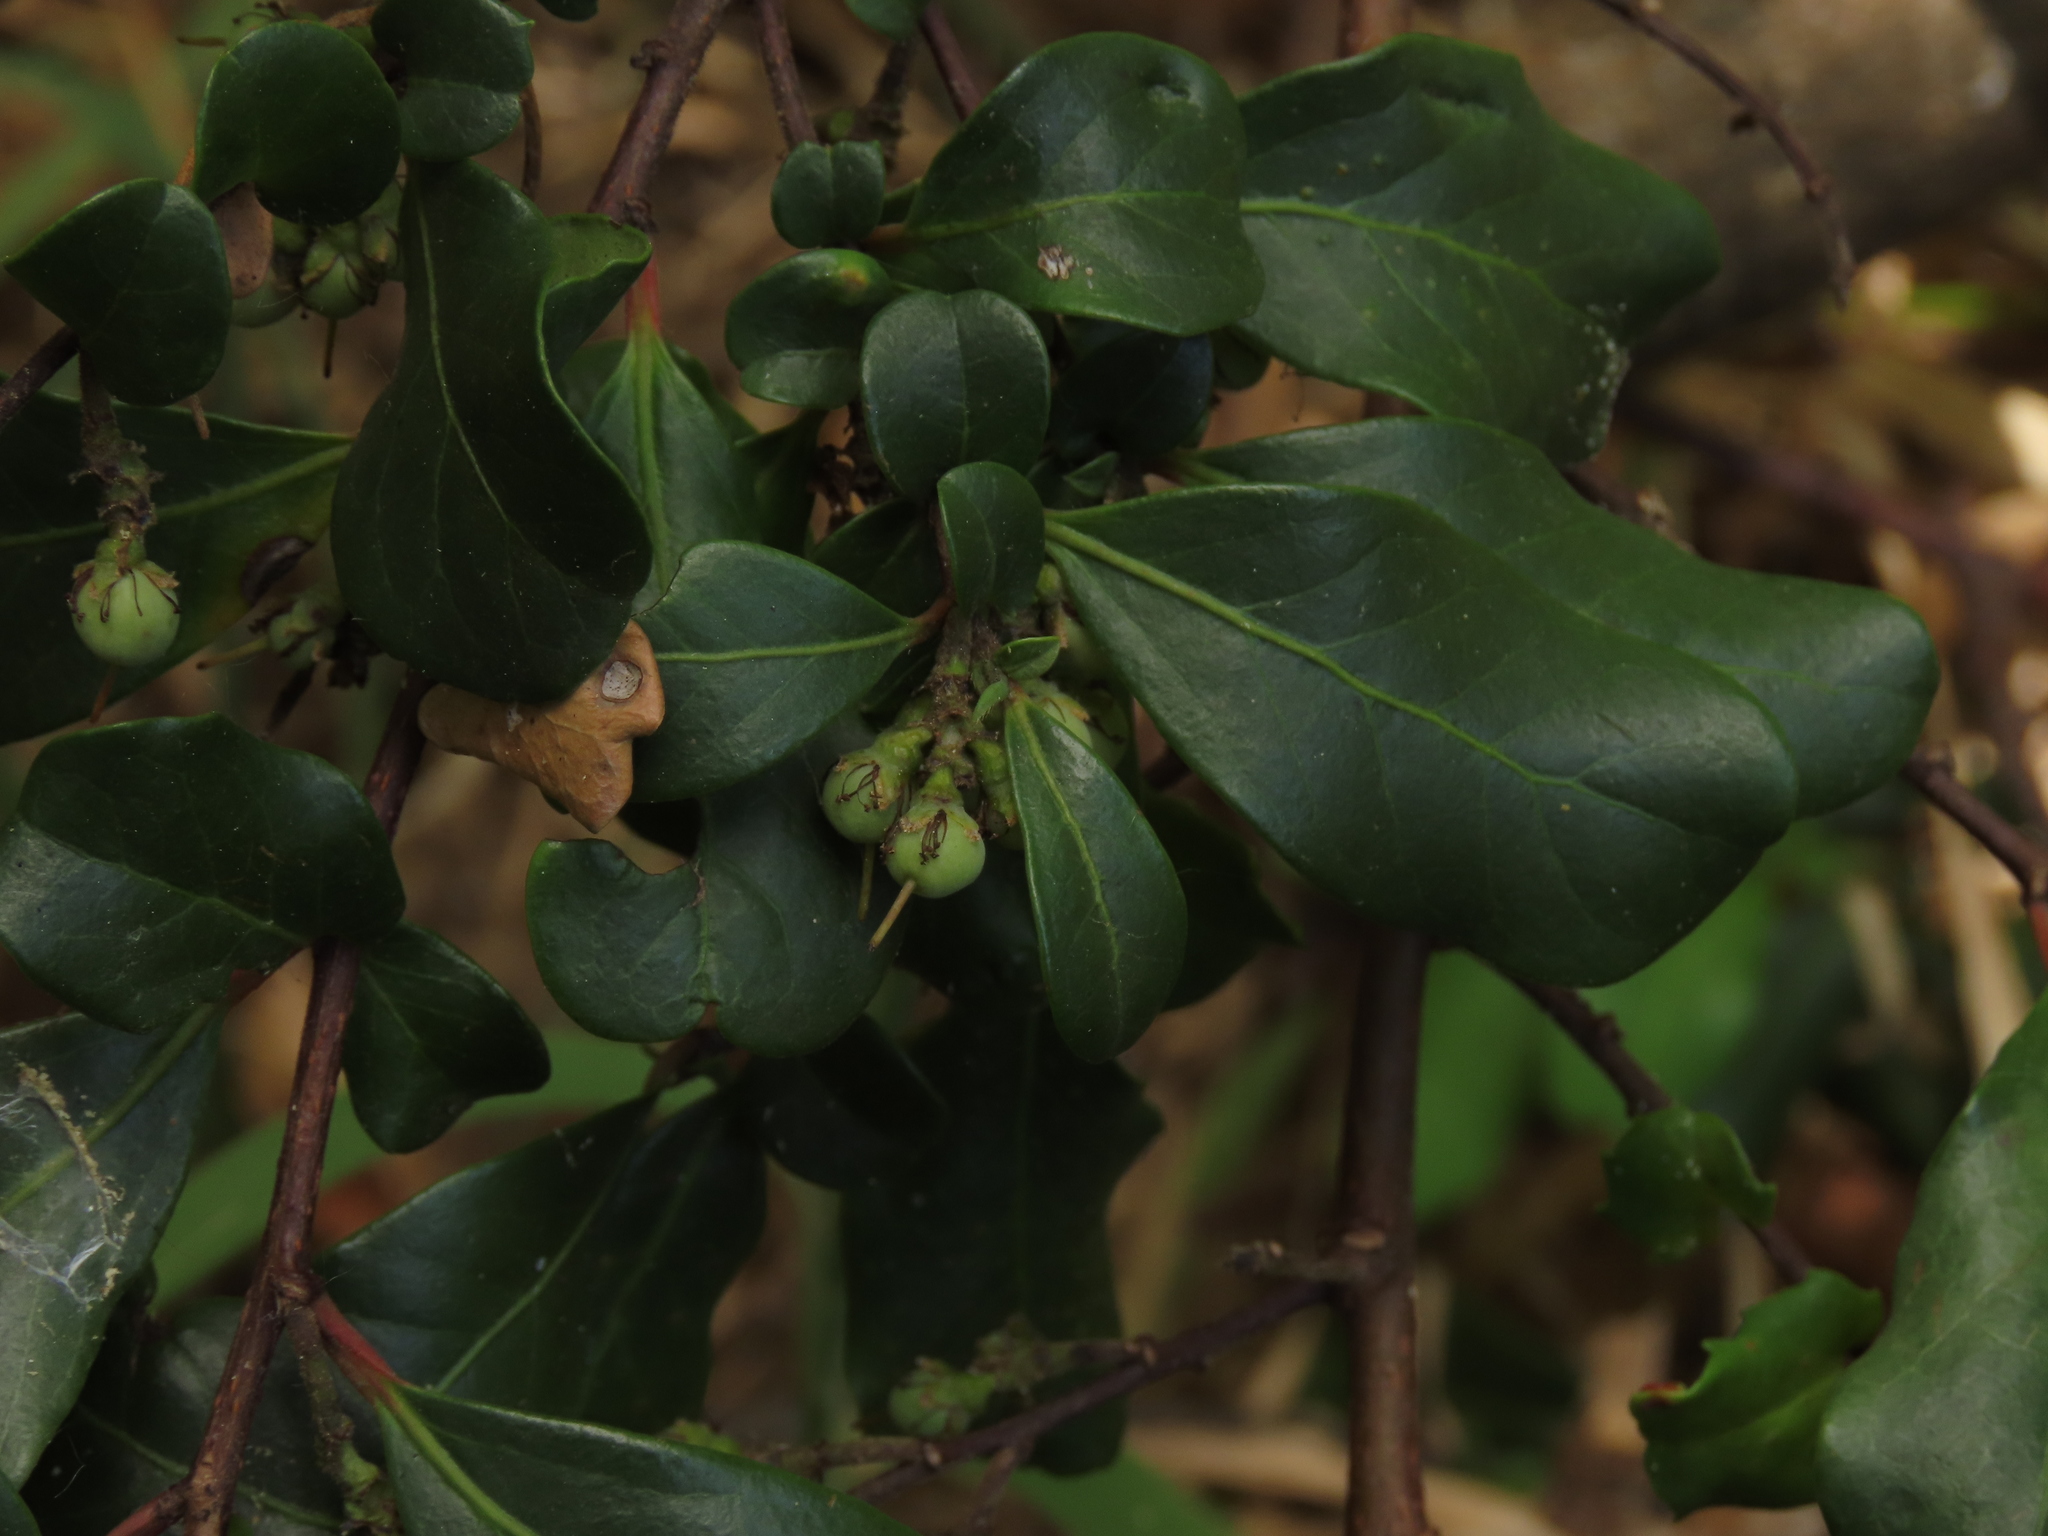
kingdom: Plantae
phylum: Tracheophyta
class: Magnoliopsida
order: Malpighiales
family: Salicaceae
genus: Azara
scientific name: Azara integrifolia
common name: Goldspire
